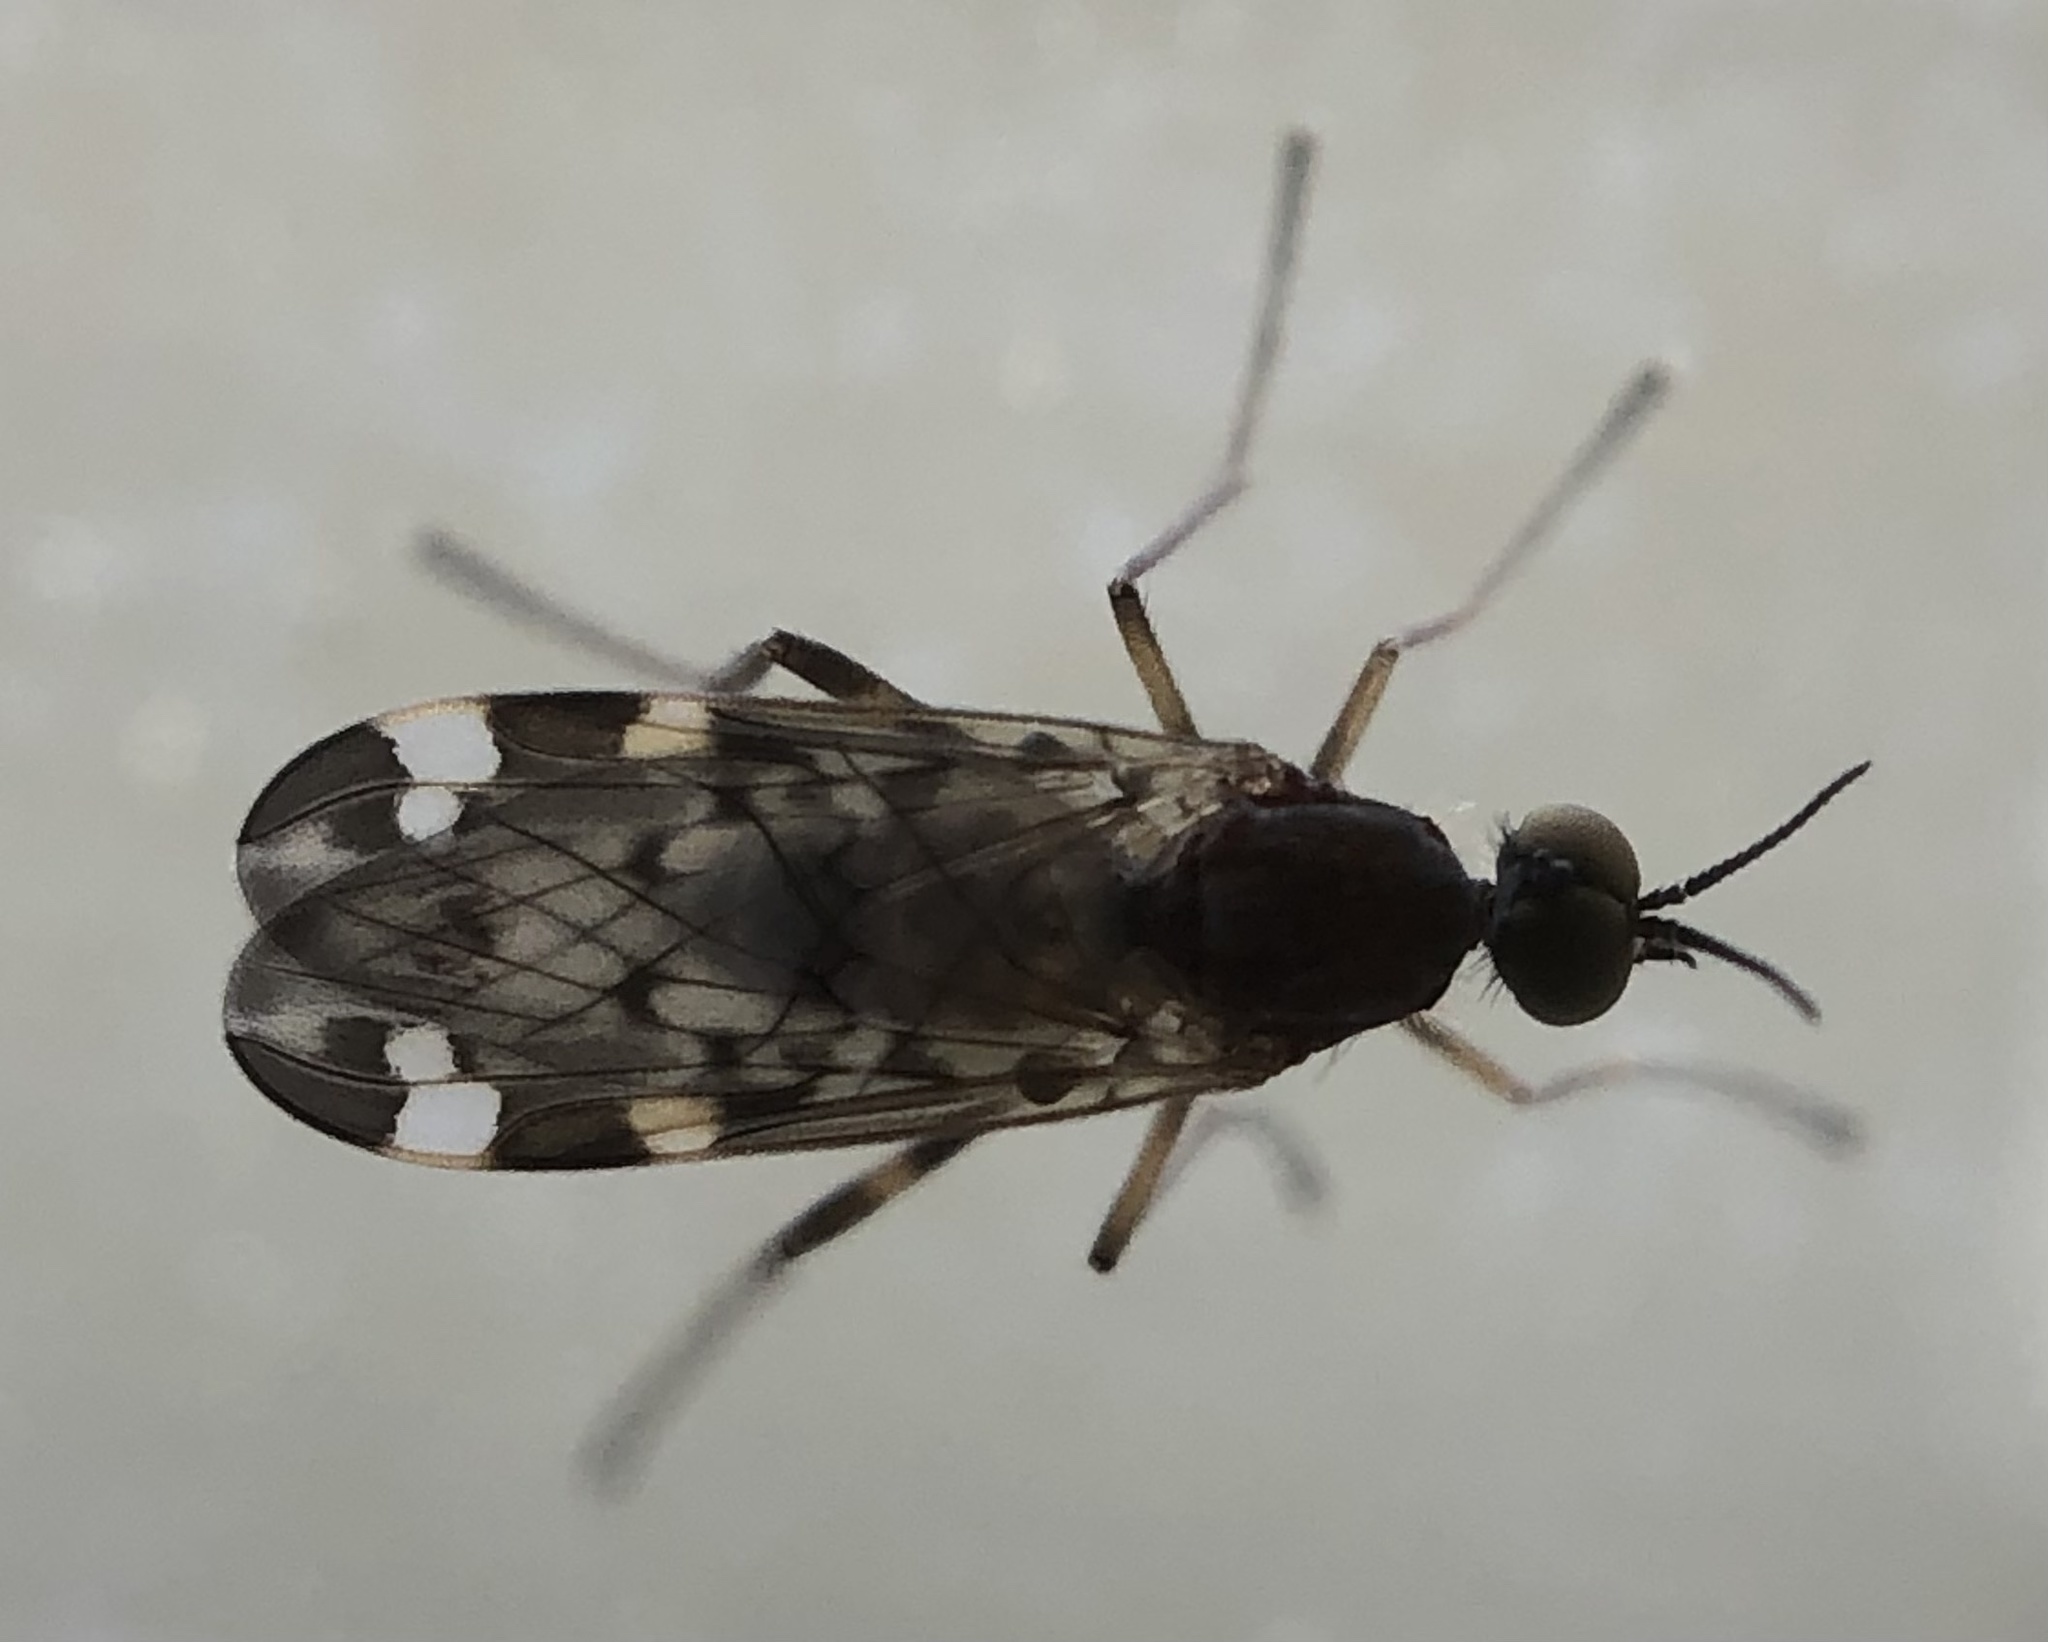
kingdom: Animalia
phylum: Arthropoda
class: Insecta
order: Diptera
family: Anisopodidae
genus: Sylvicola
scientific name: Sylvicola alternata
